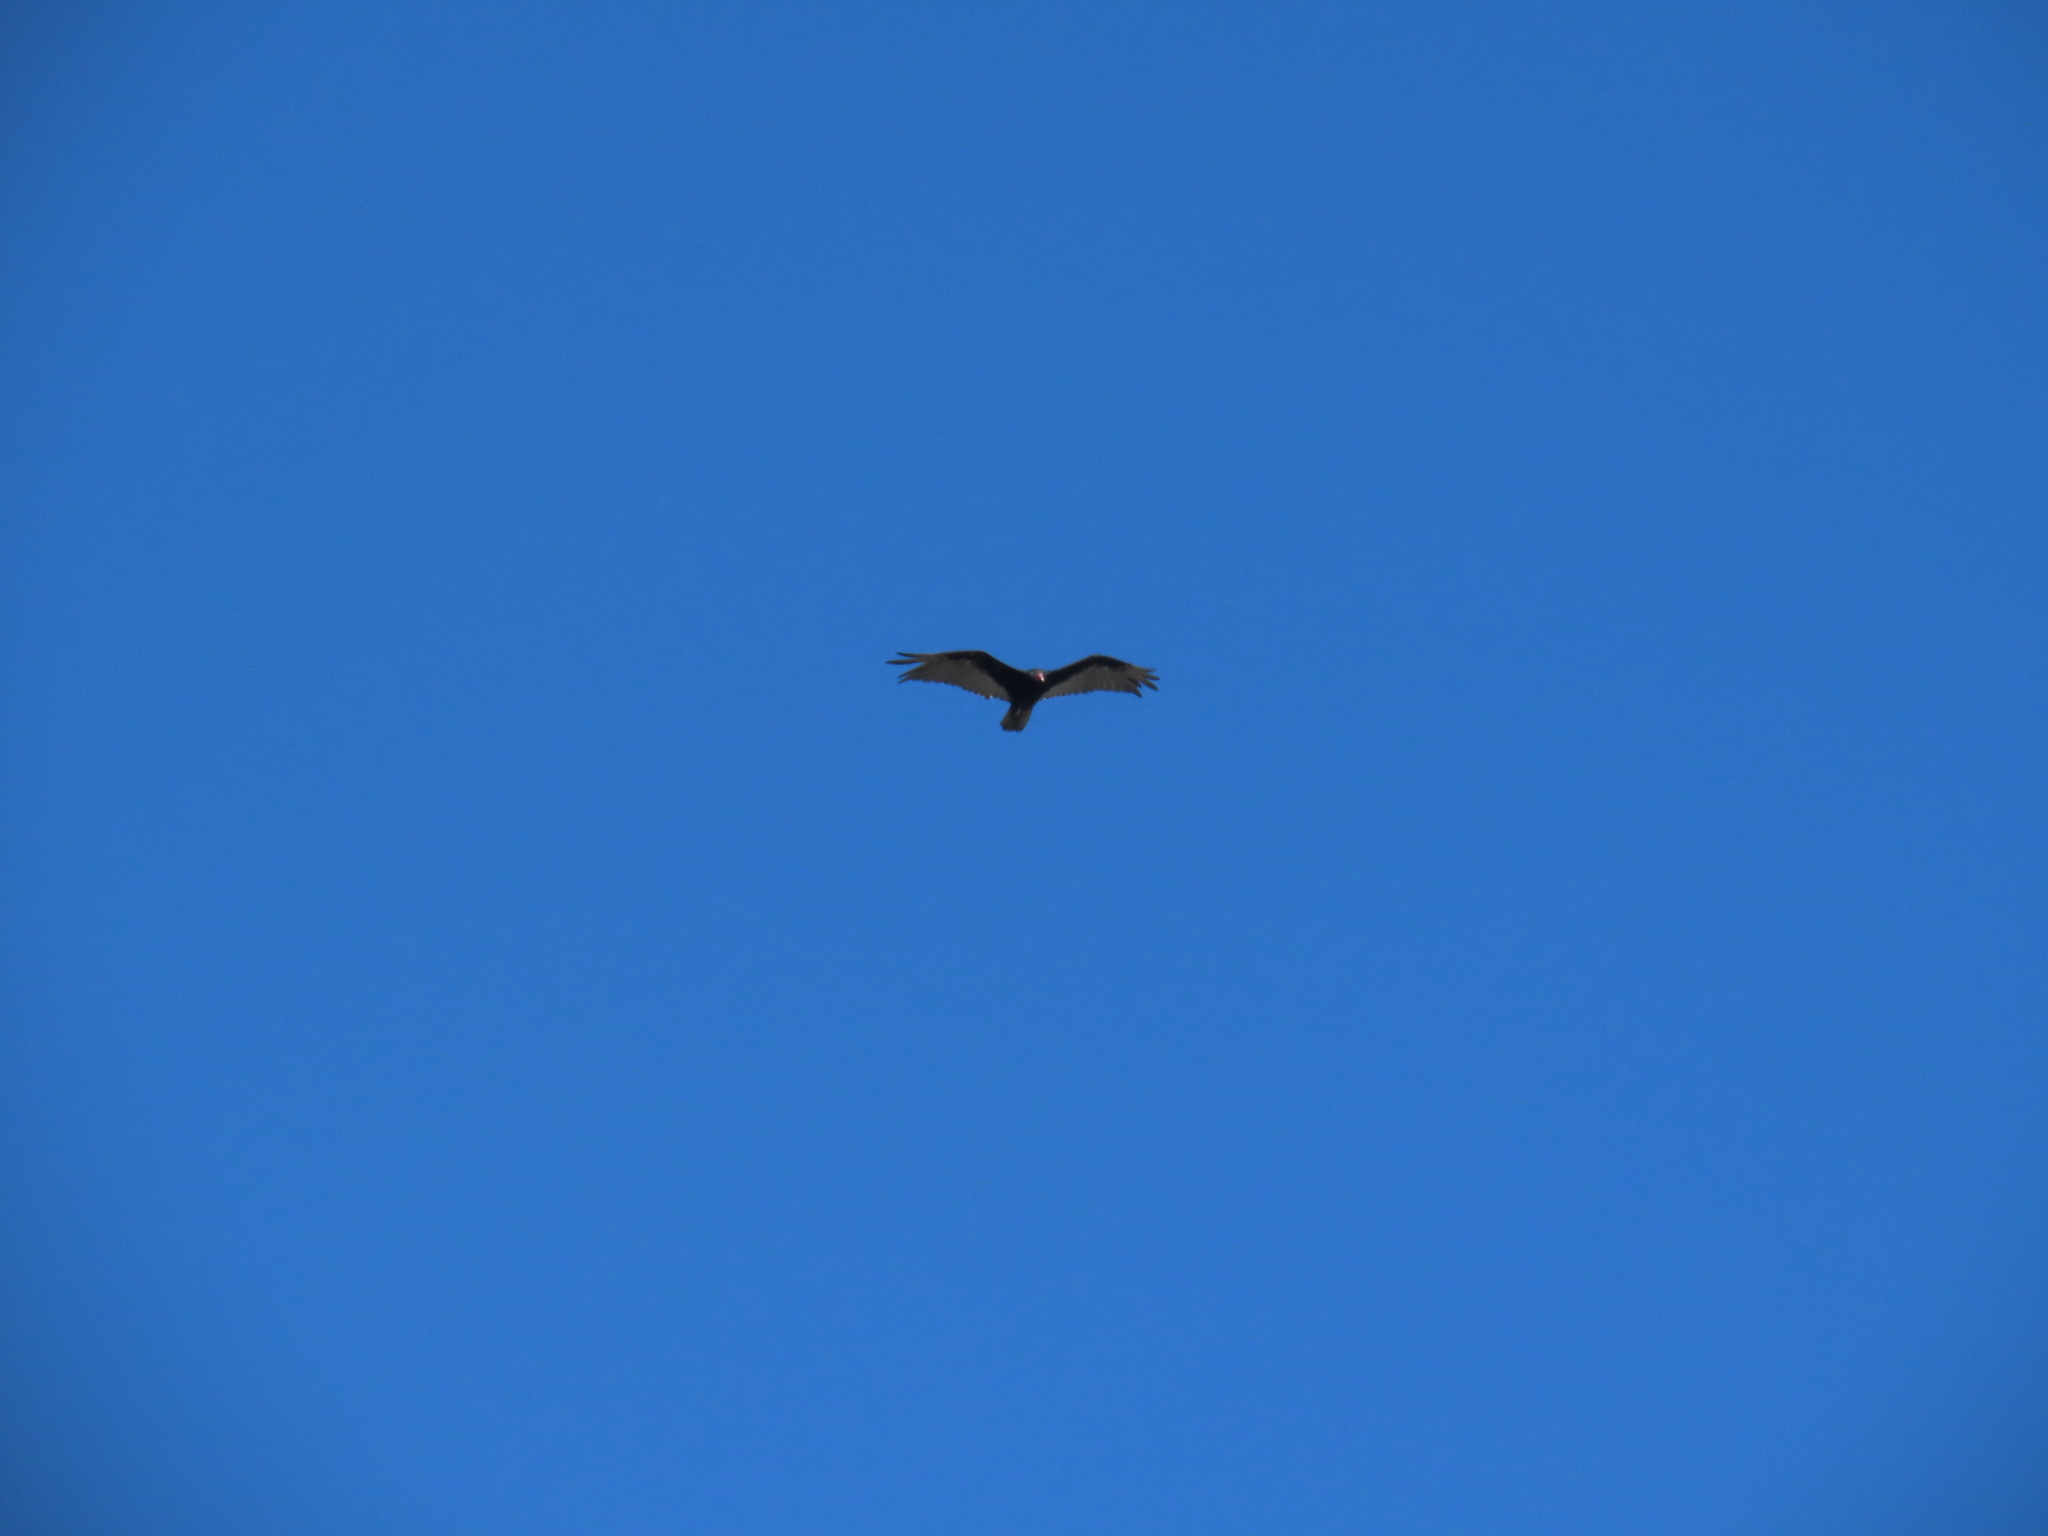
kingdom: Animalia
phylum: Chordata
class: Aves
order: Accipitriformes
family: Cathartidae
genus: Cathartes
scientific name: Cathartes aura
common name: Turkey vulture
